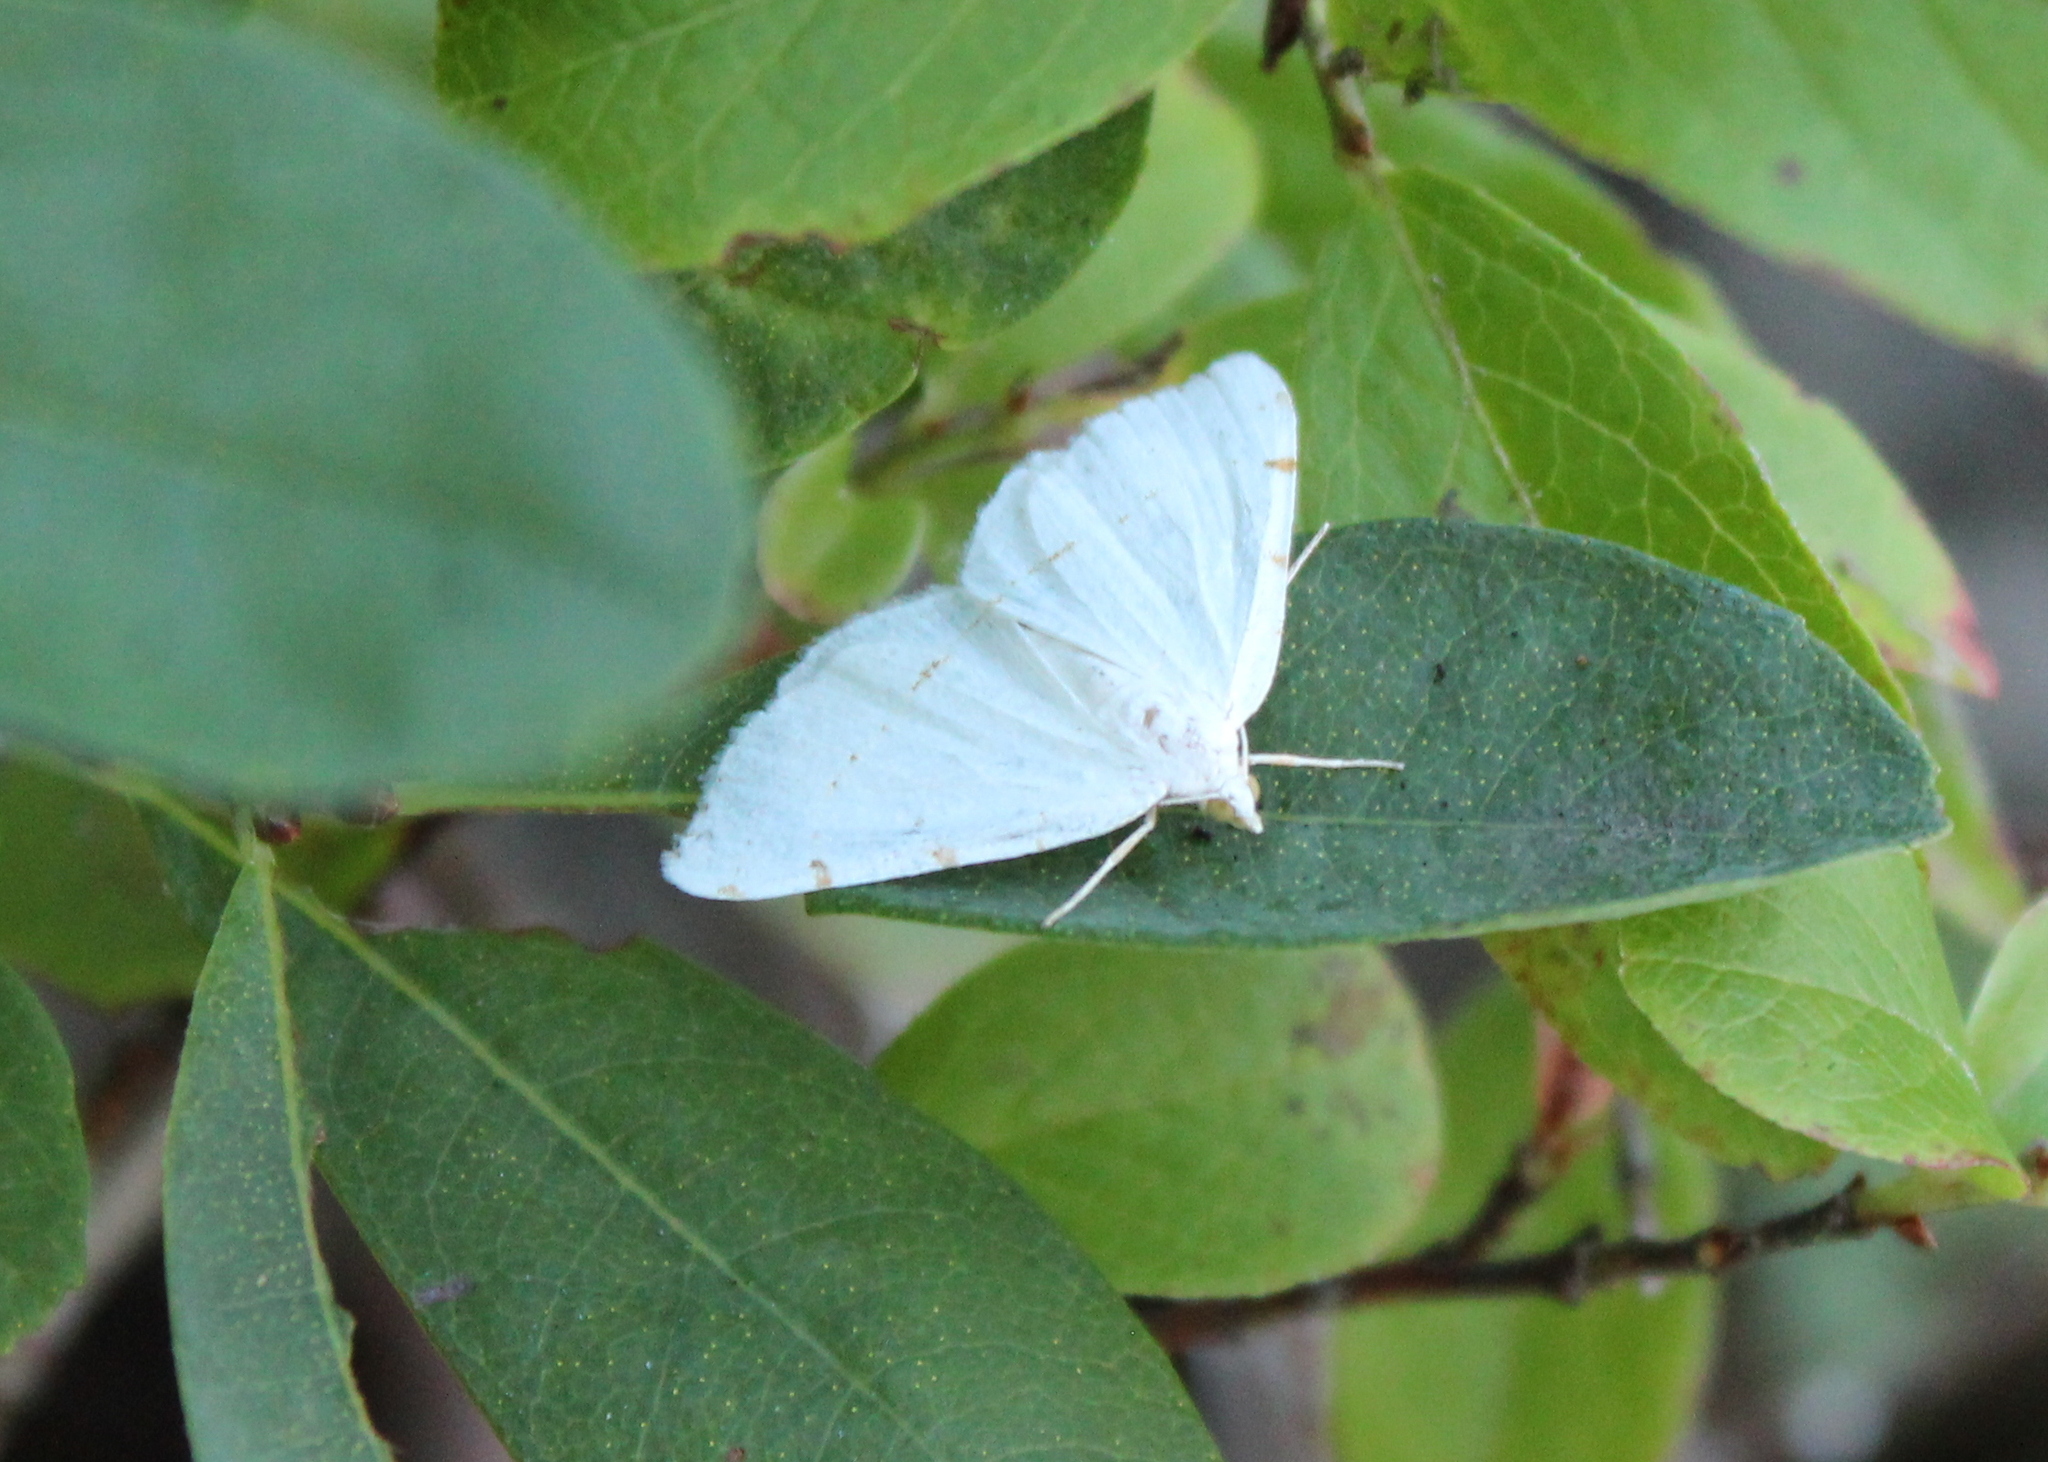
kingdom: Animalia
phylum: Arthropoda
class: Insecta
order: Lepidoptera
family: Geometridae
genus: Macaria
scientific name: Macaria pustularia
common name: Lesser maple spanworm moth
